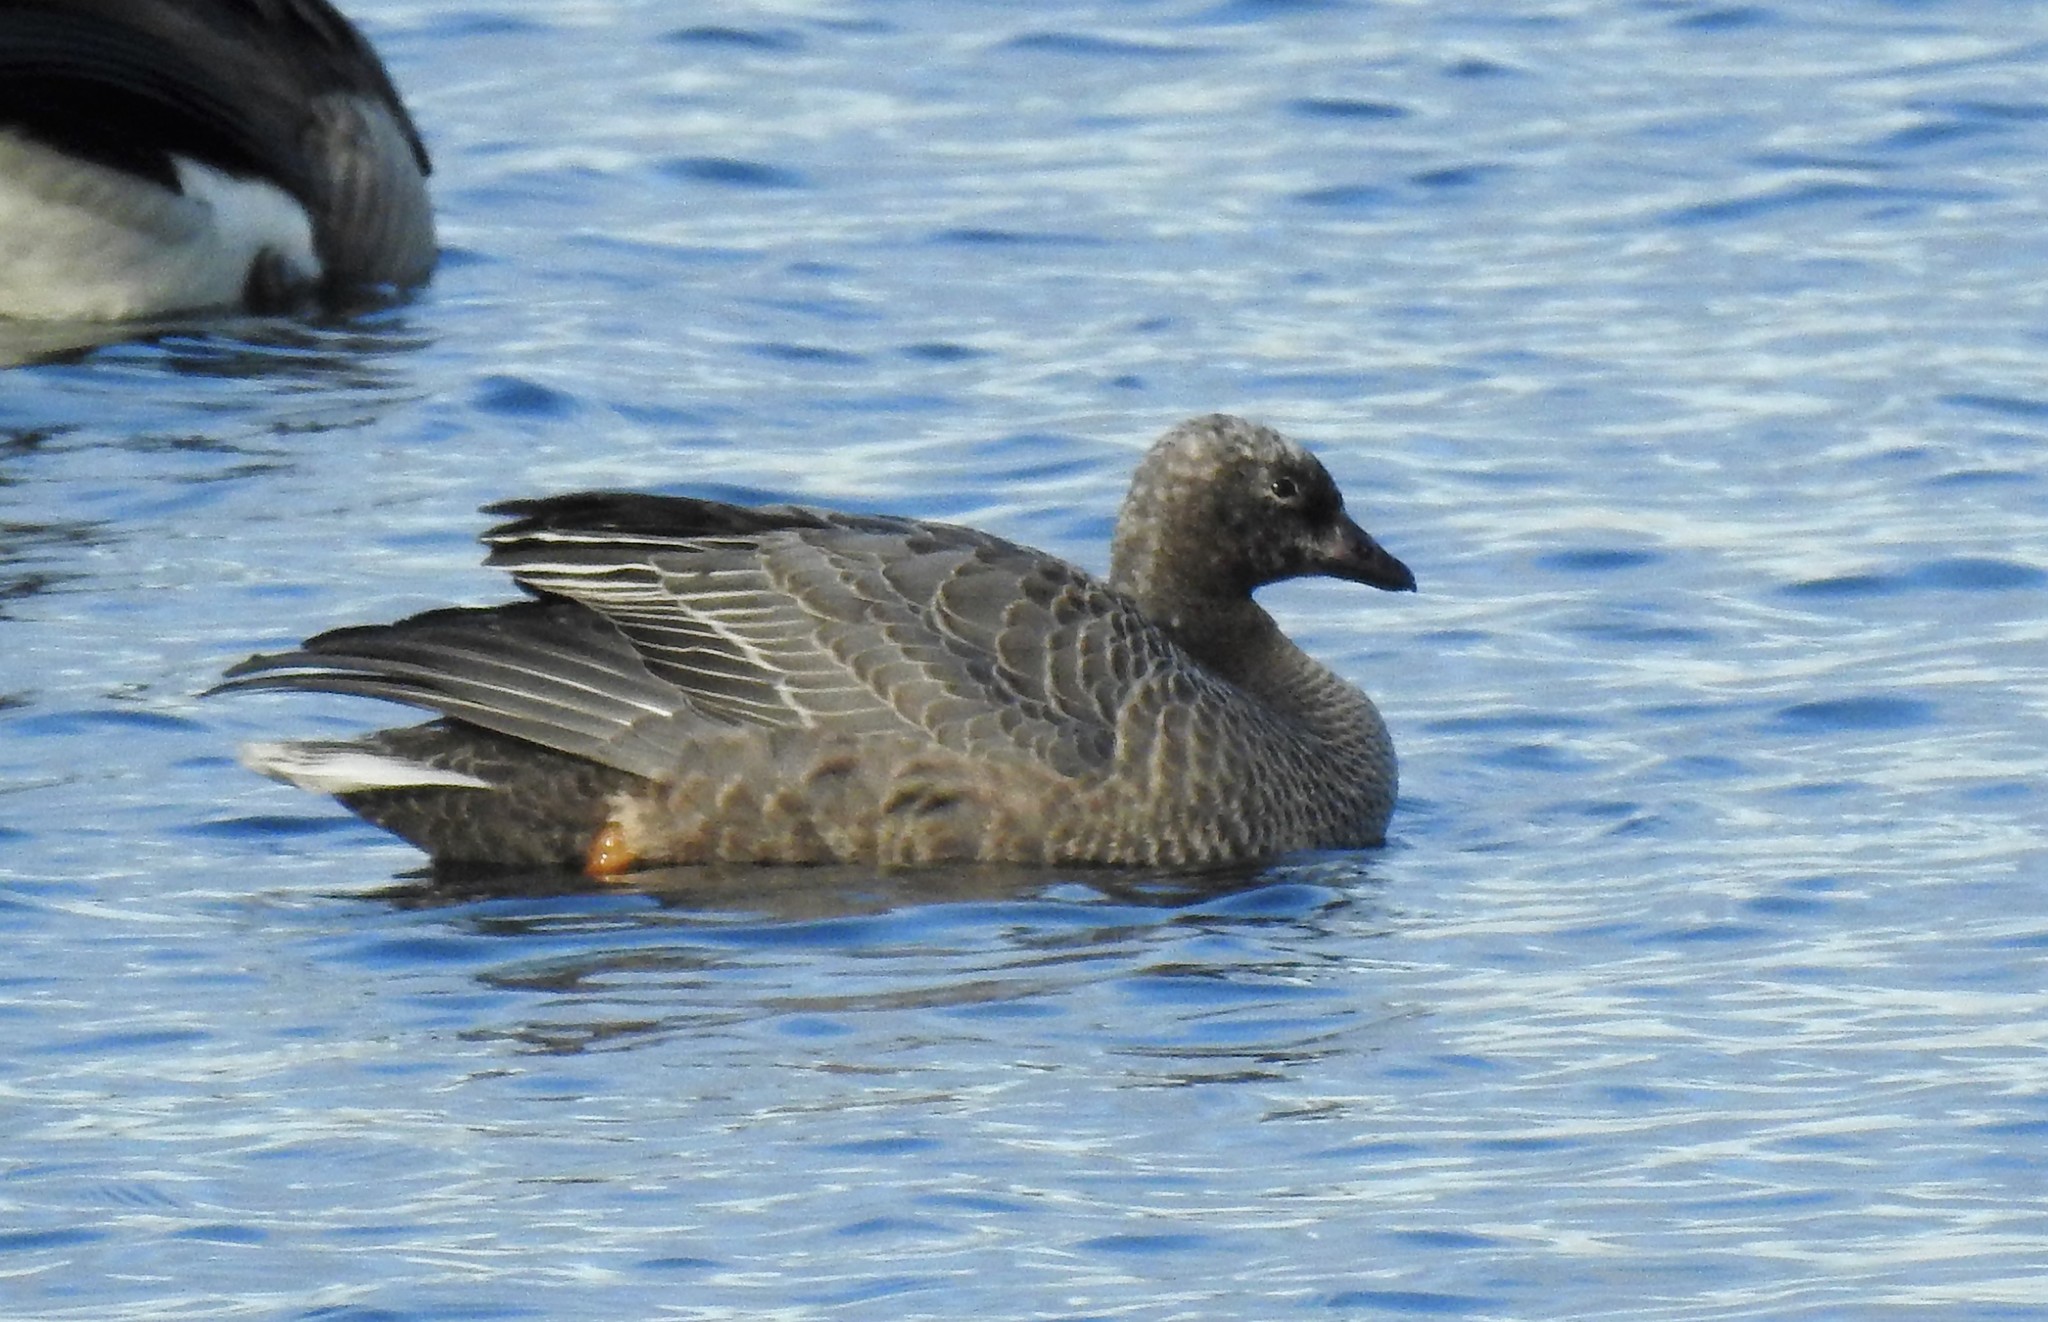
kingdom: Animalia
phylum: Chordata
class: Aves
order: Anseriformes
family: Anatidae
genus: Anser
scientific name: Anser canagicus
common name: Emperor goose
